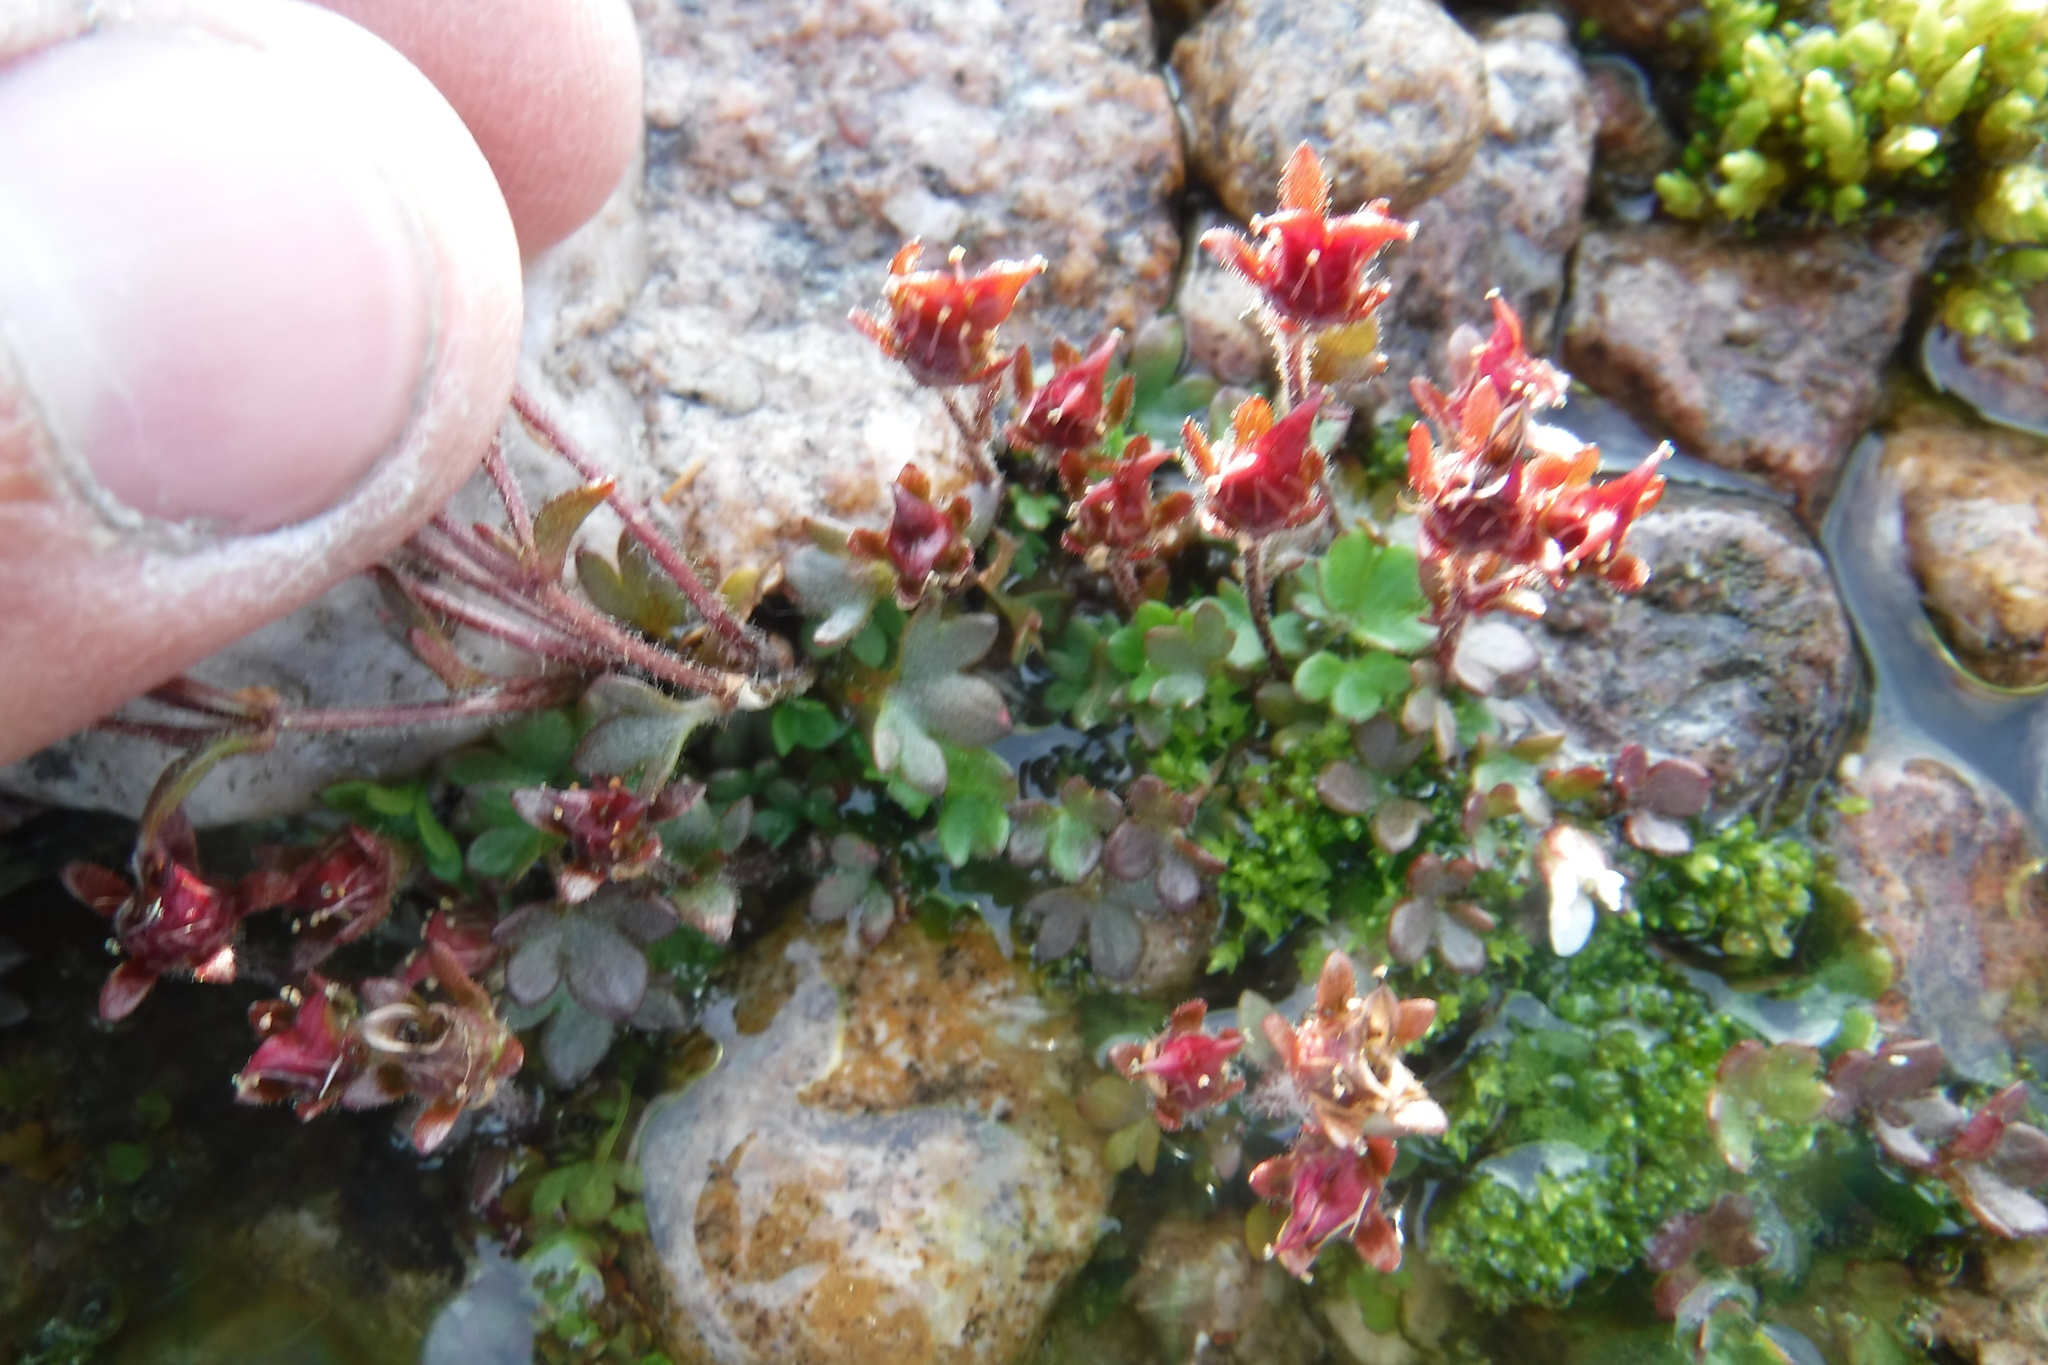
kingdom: Plantae
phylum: Tracheophyta
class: Magnoliopsida
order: Saxifragales
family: Saxifragaceae
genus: Saxifraga
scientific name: Saxifraga rivularis
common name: Highland saxifrage
